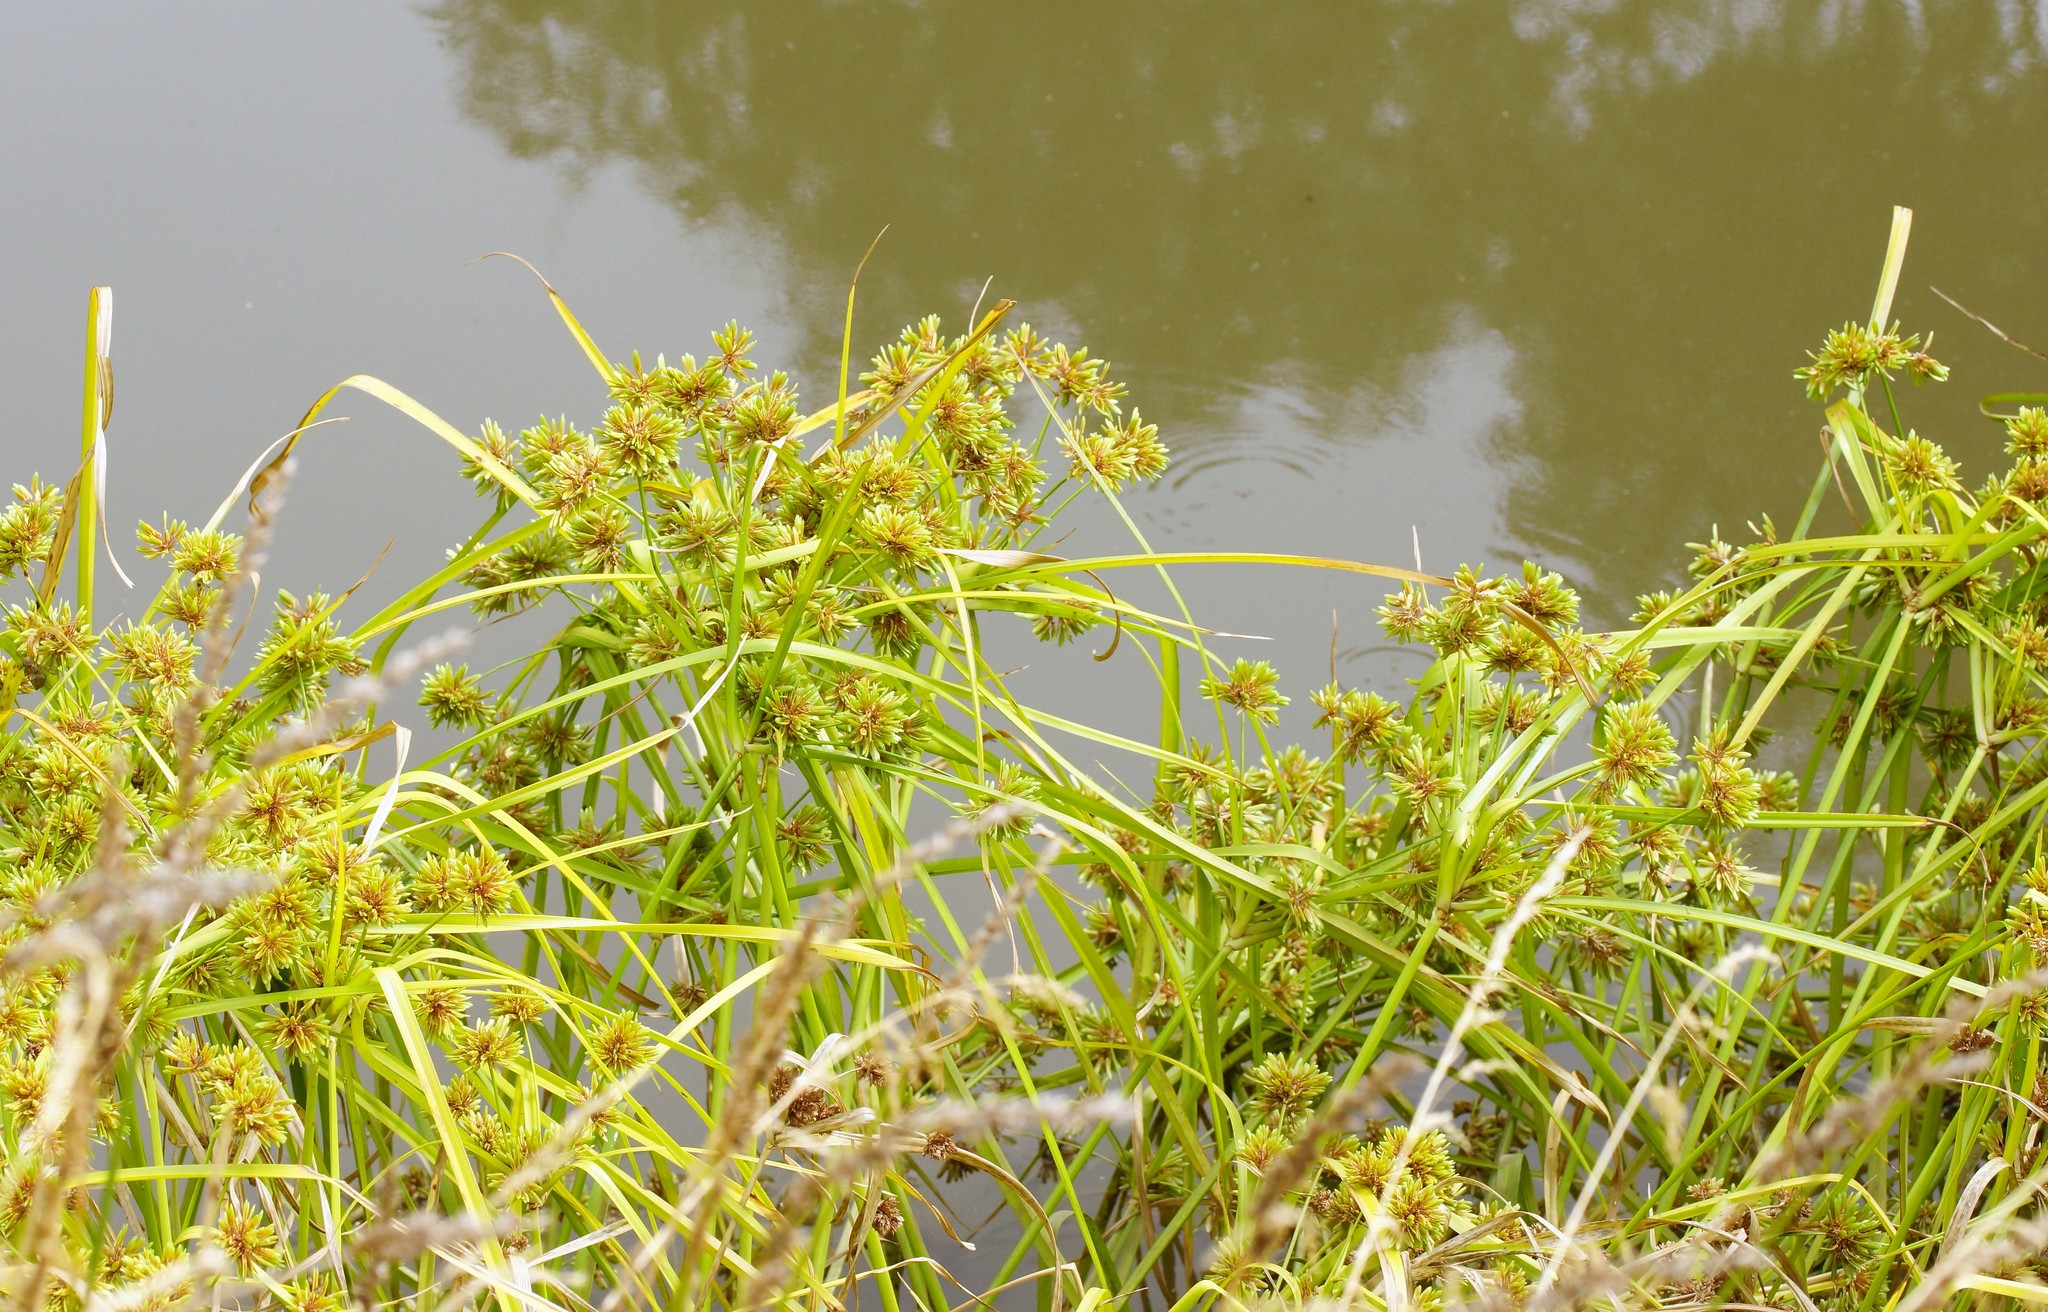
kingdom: Plantae
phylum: Tracheophyta
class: Liliopsida
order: Poales
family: Cyperaceae
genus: Cyperus
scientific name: Cyperus eragrostis
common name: Tall flatsedge
